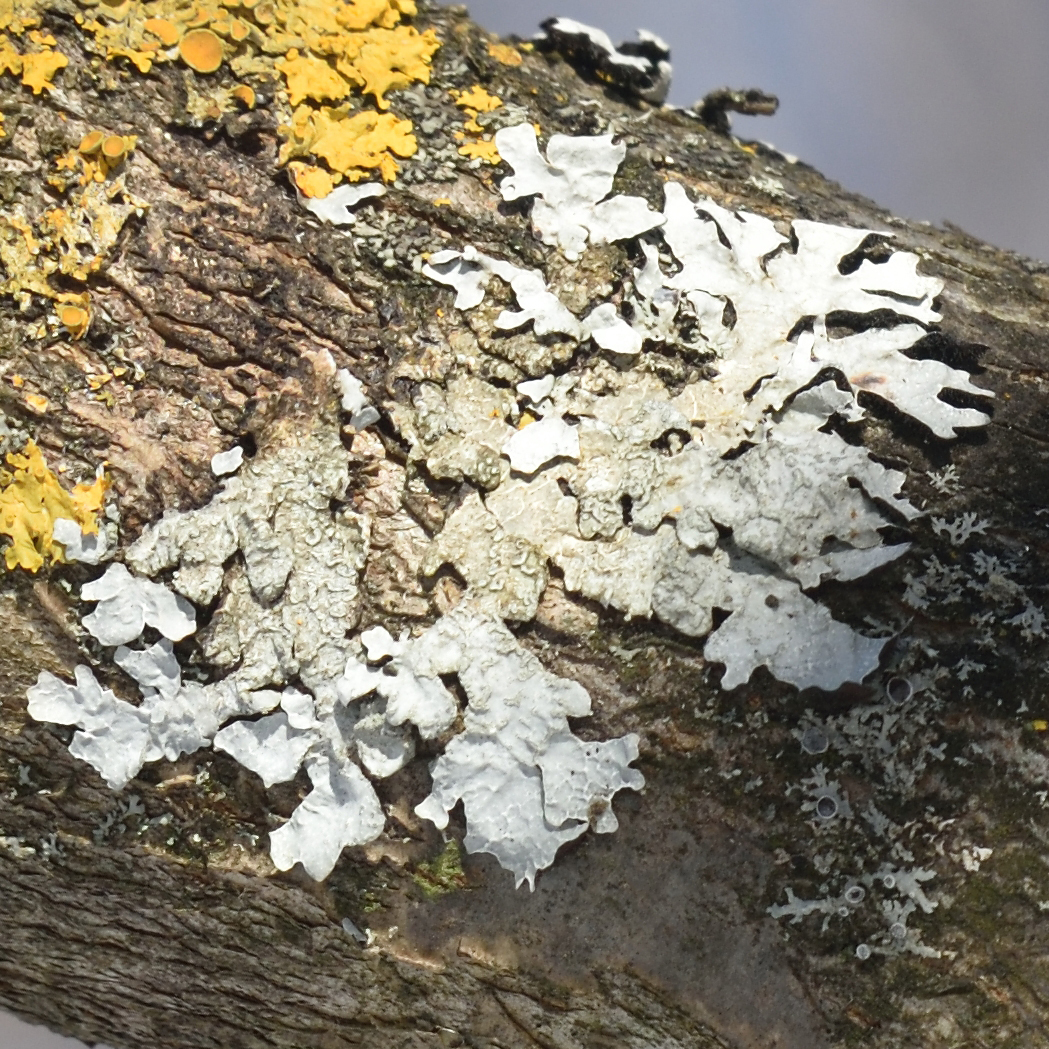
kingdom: Fungi
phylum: Ascomycota
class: Lecanoromycetes
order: Lecanorales
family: Parmeliaceae
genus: Parmelia
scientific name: Parmelia sulcata
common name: Netted shield lichen
